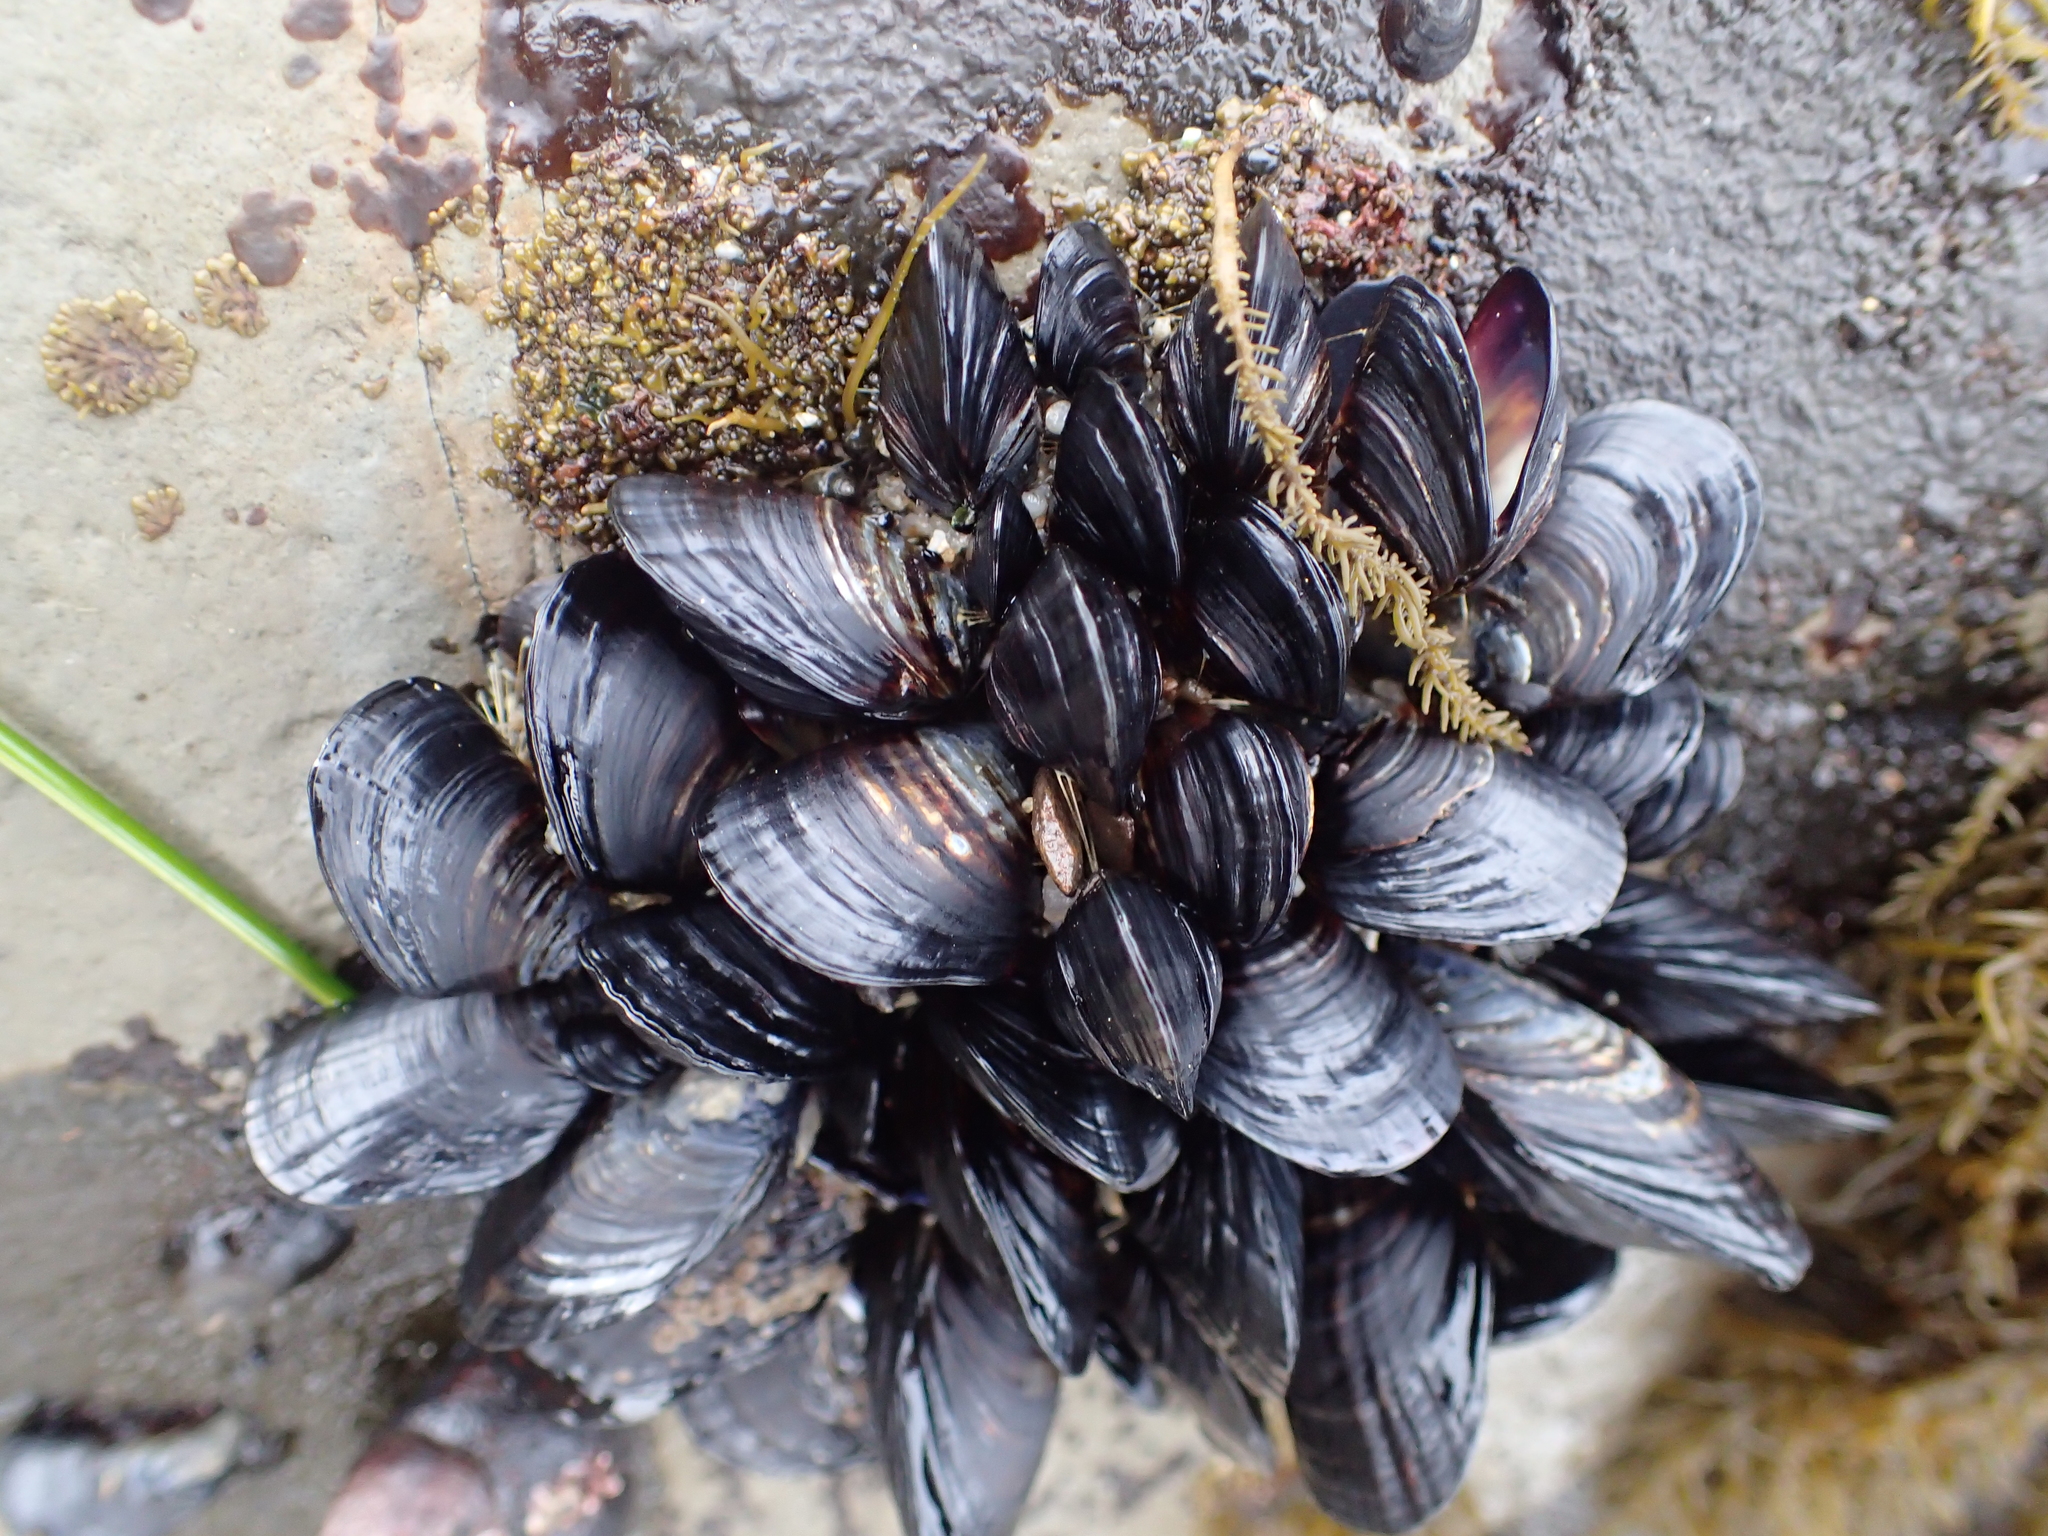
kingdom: Animalia
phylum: Mollusca
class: Bivalvia
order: Mytilida
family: Mytilidae
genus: Mytilus
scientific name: Mytilus californianus
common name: California mussel
